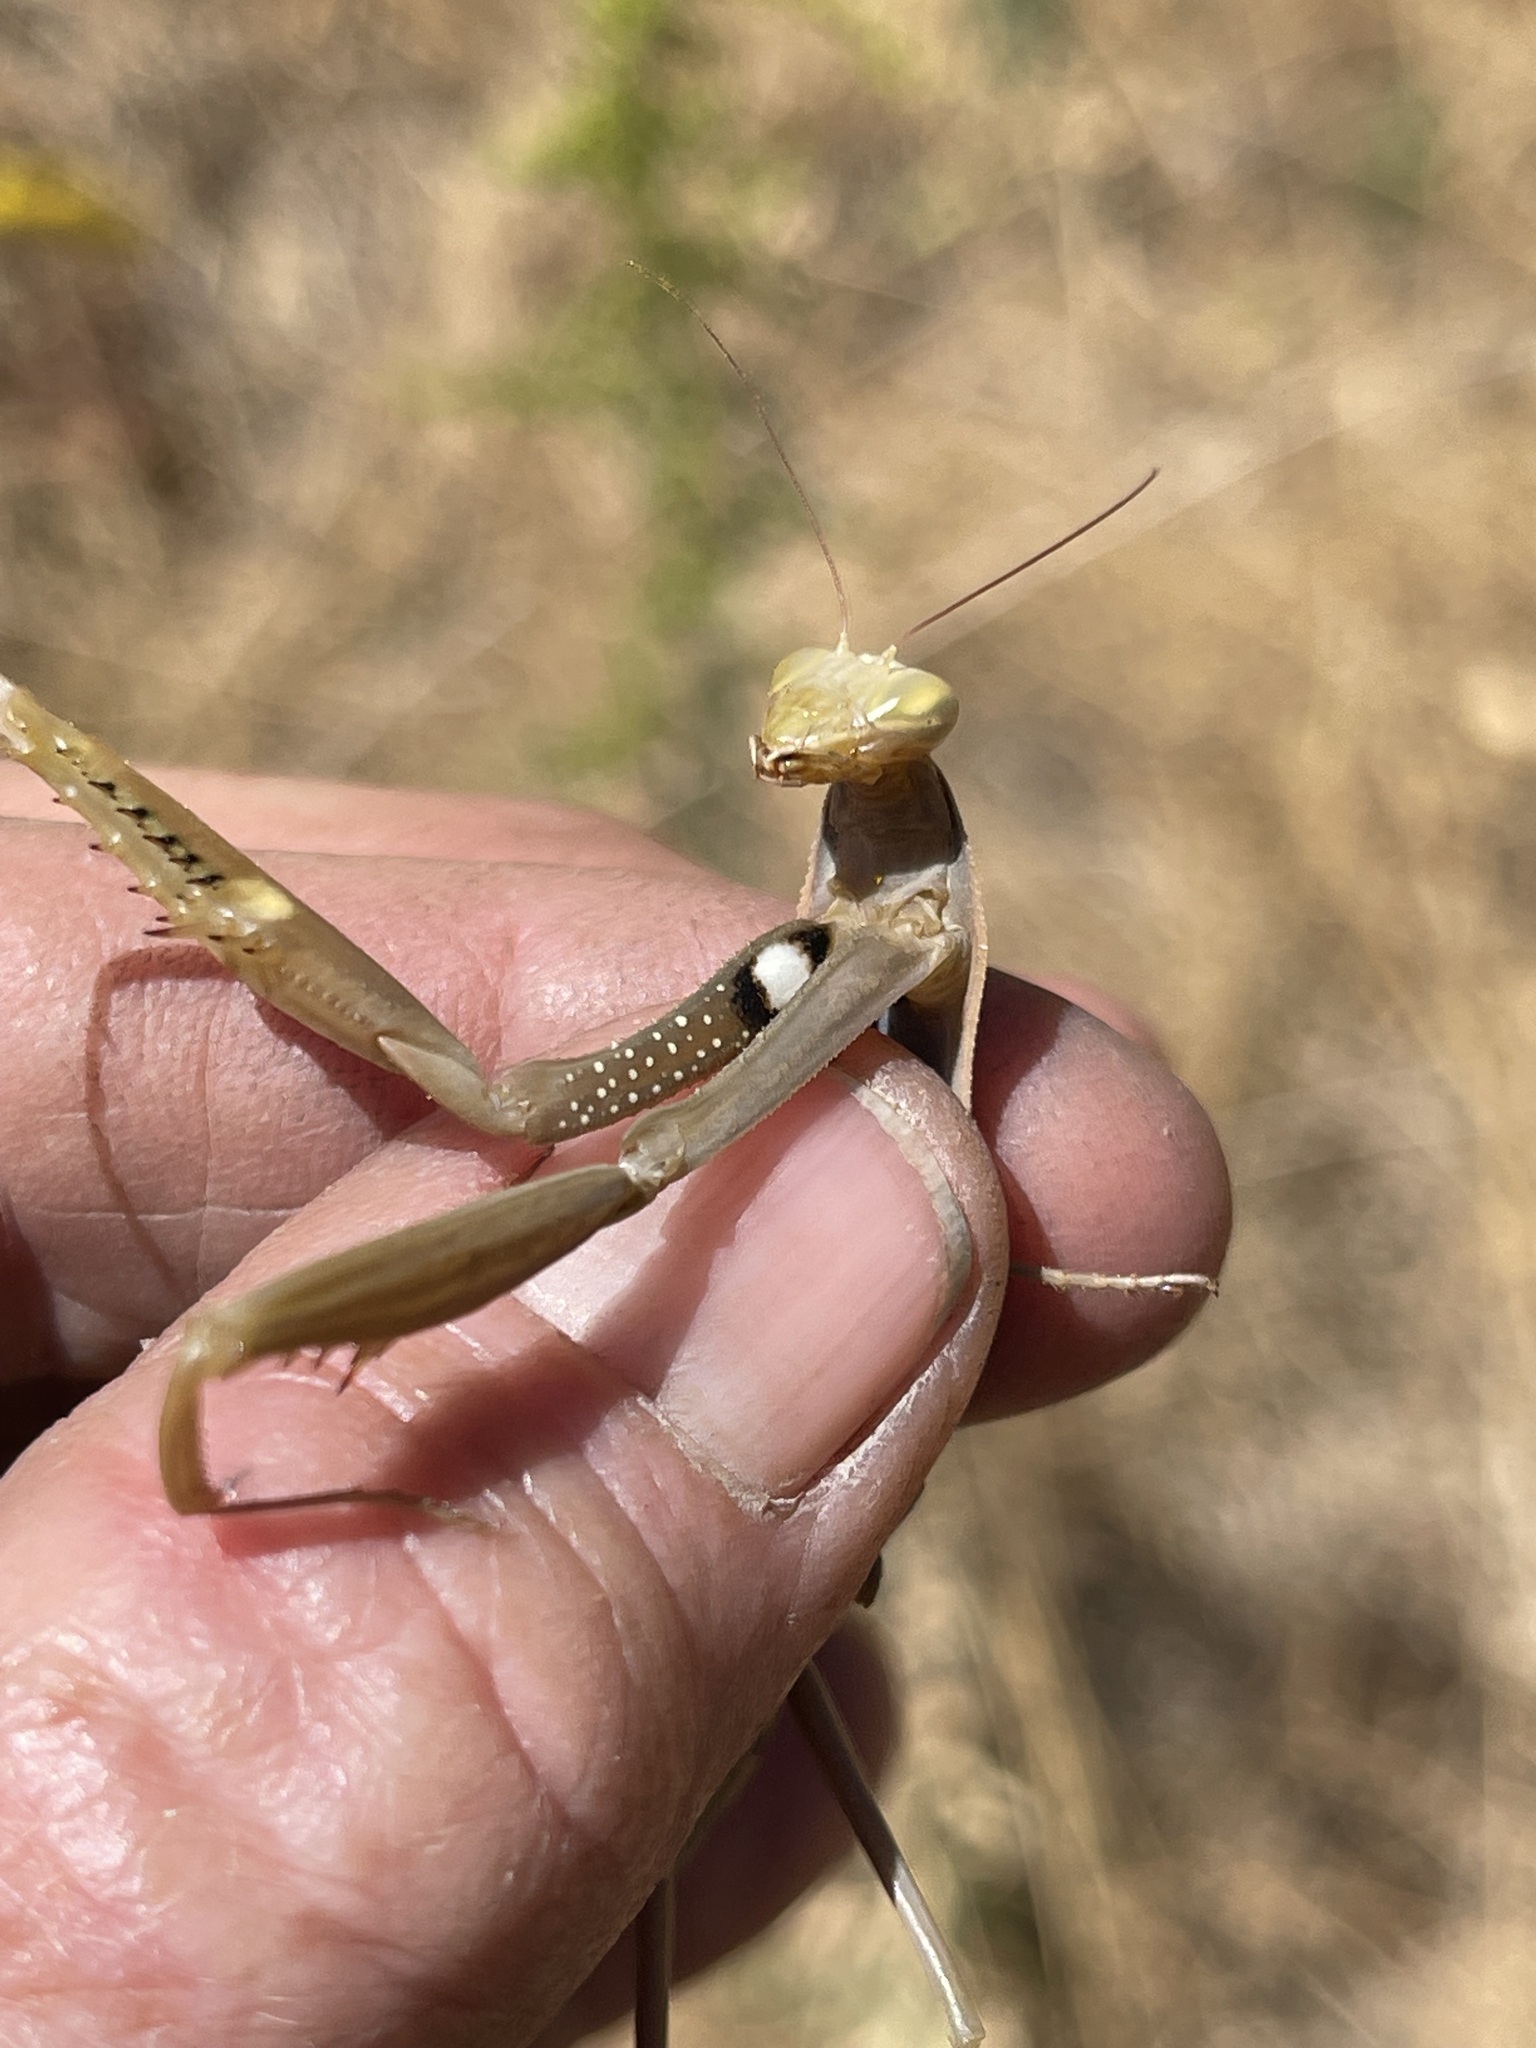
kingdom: Animalia
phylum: Arthropoda
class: Insecta
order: Mantodea
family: Mantidae
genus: Mantis
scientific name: Mantis religiosa
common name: Praying mantis
